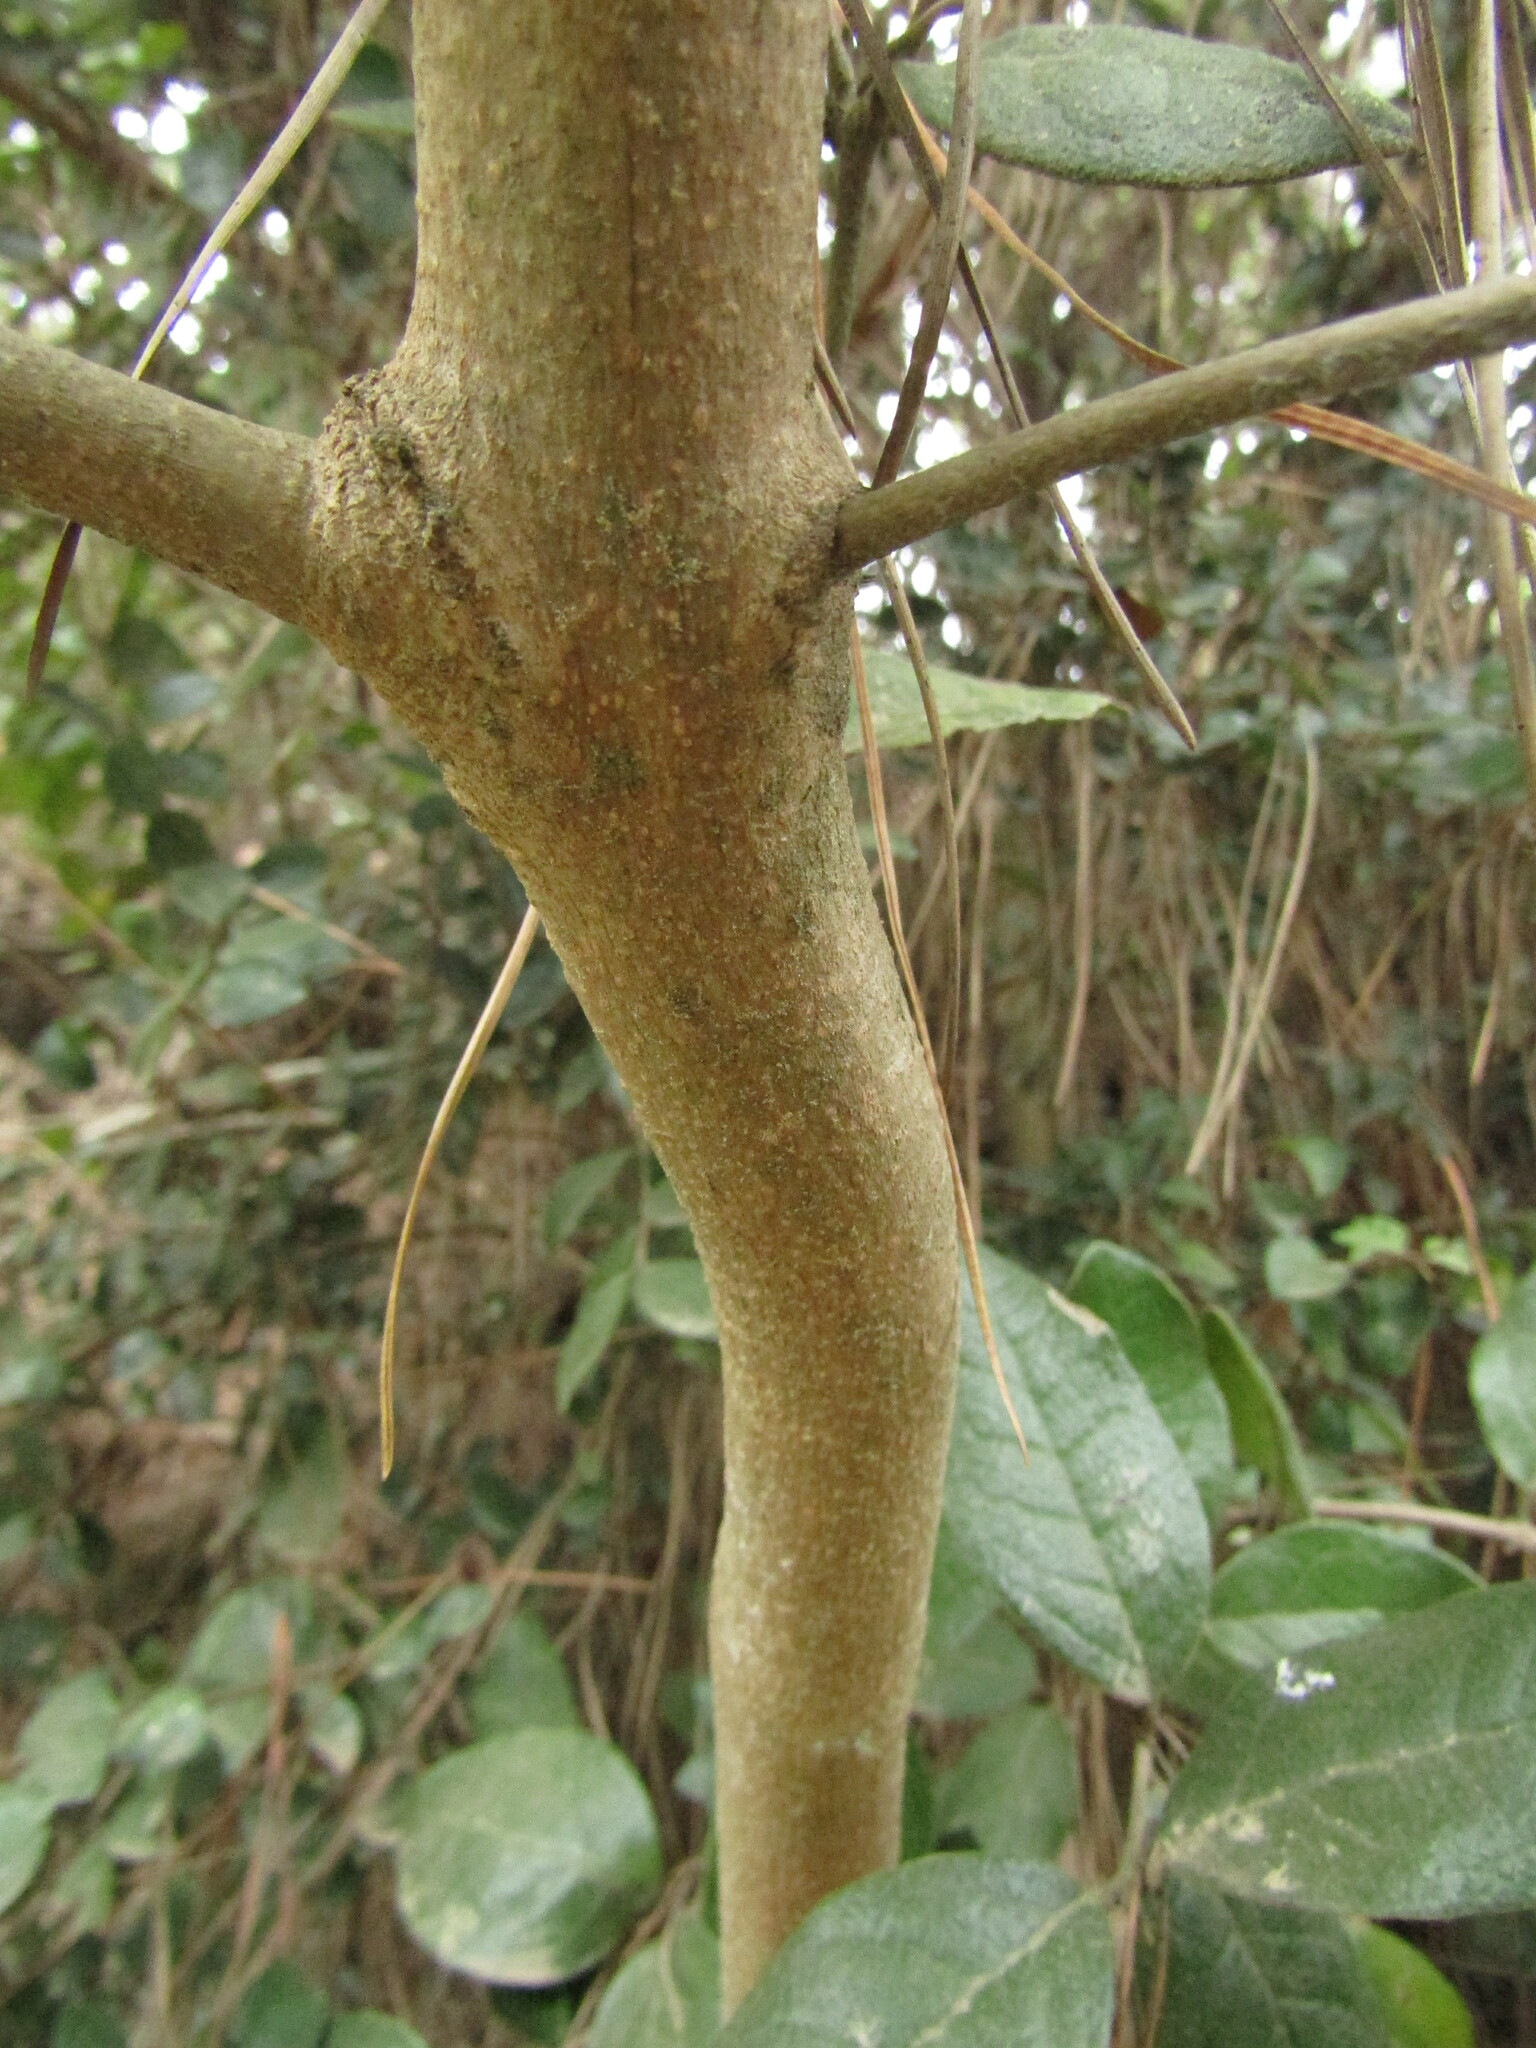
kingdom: Plantae
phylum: Tracheophyta
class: Magnoliopsida
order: Myrtales
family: Myrtaceae
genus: Myrceugenia
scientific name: Myrceugenia obtusa
